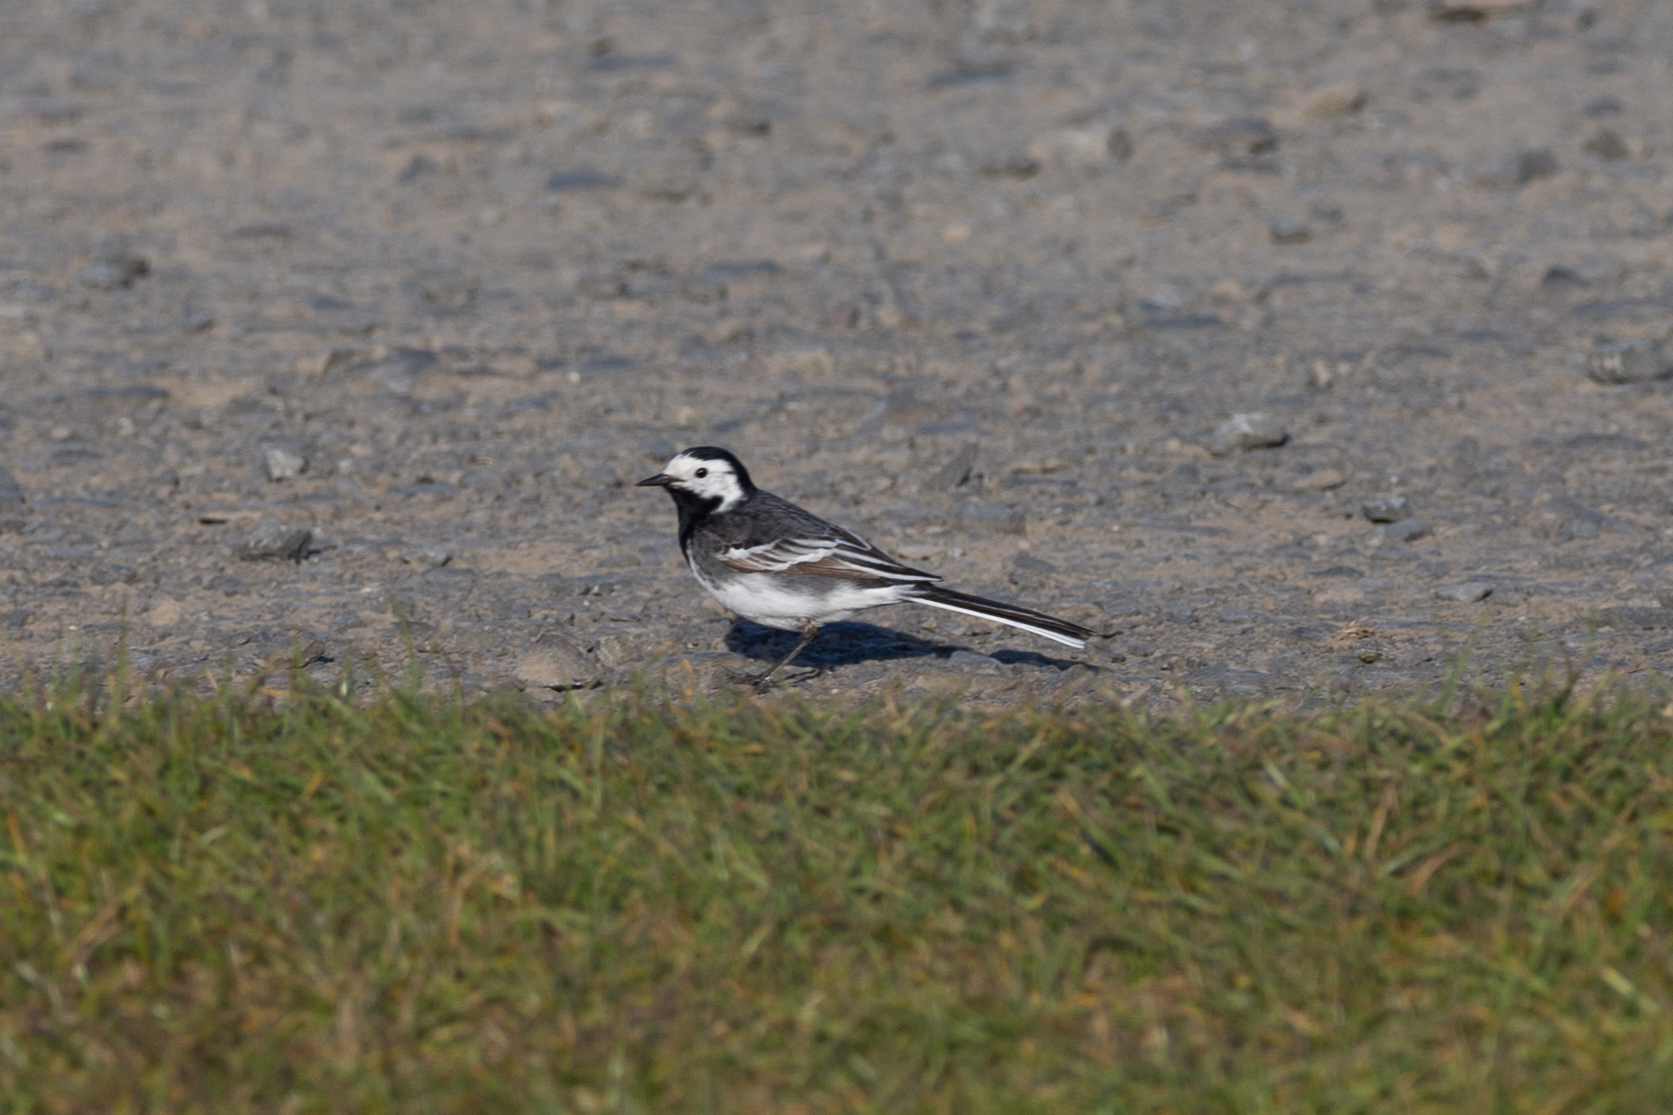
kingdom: Animalia
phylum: Chordata
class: Aves
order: Passeriformes
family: Motacillidae
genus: Motacilla
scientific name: Motacilla alba
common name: White wagtail
